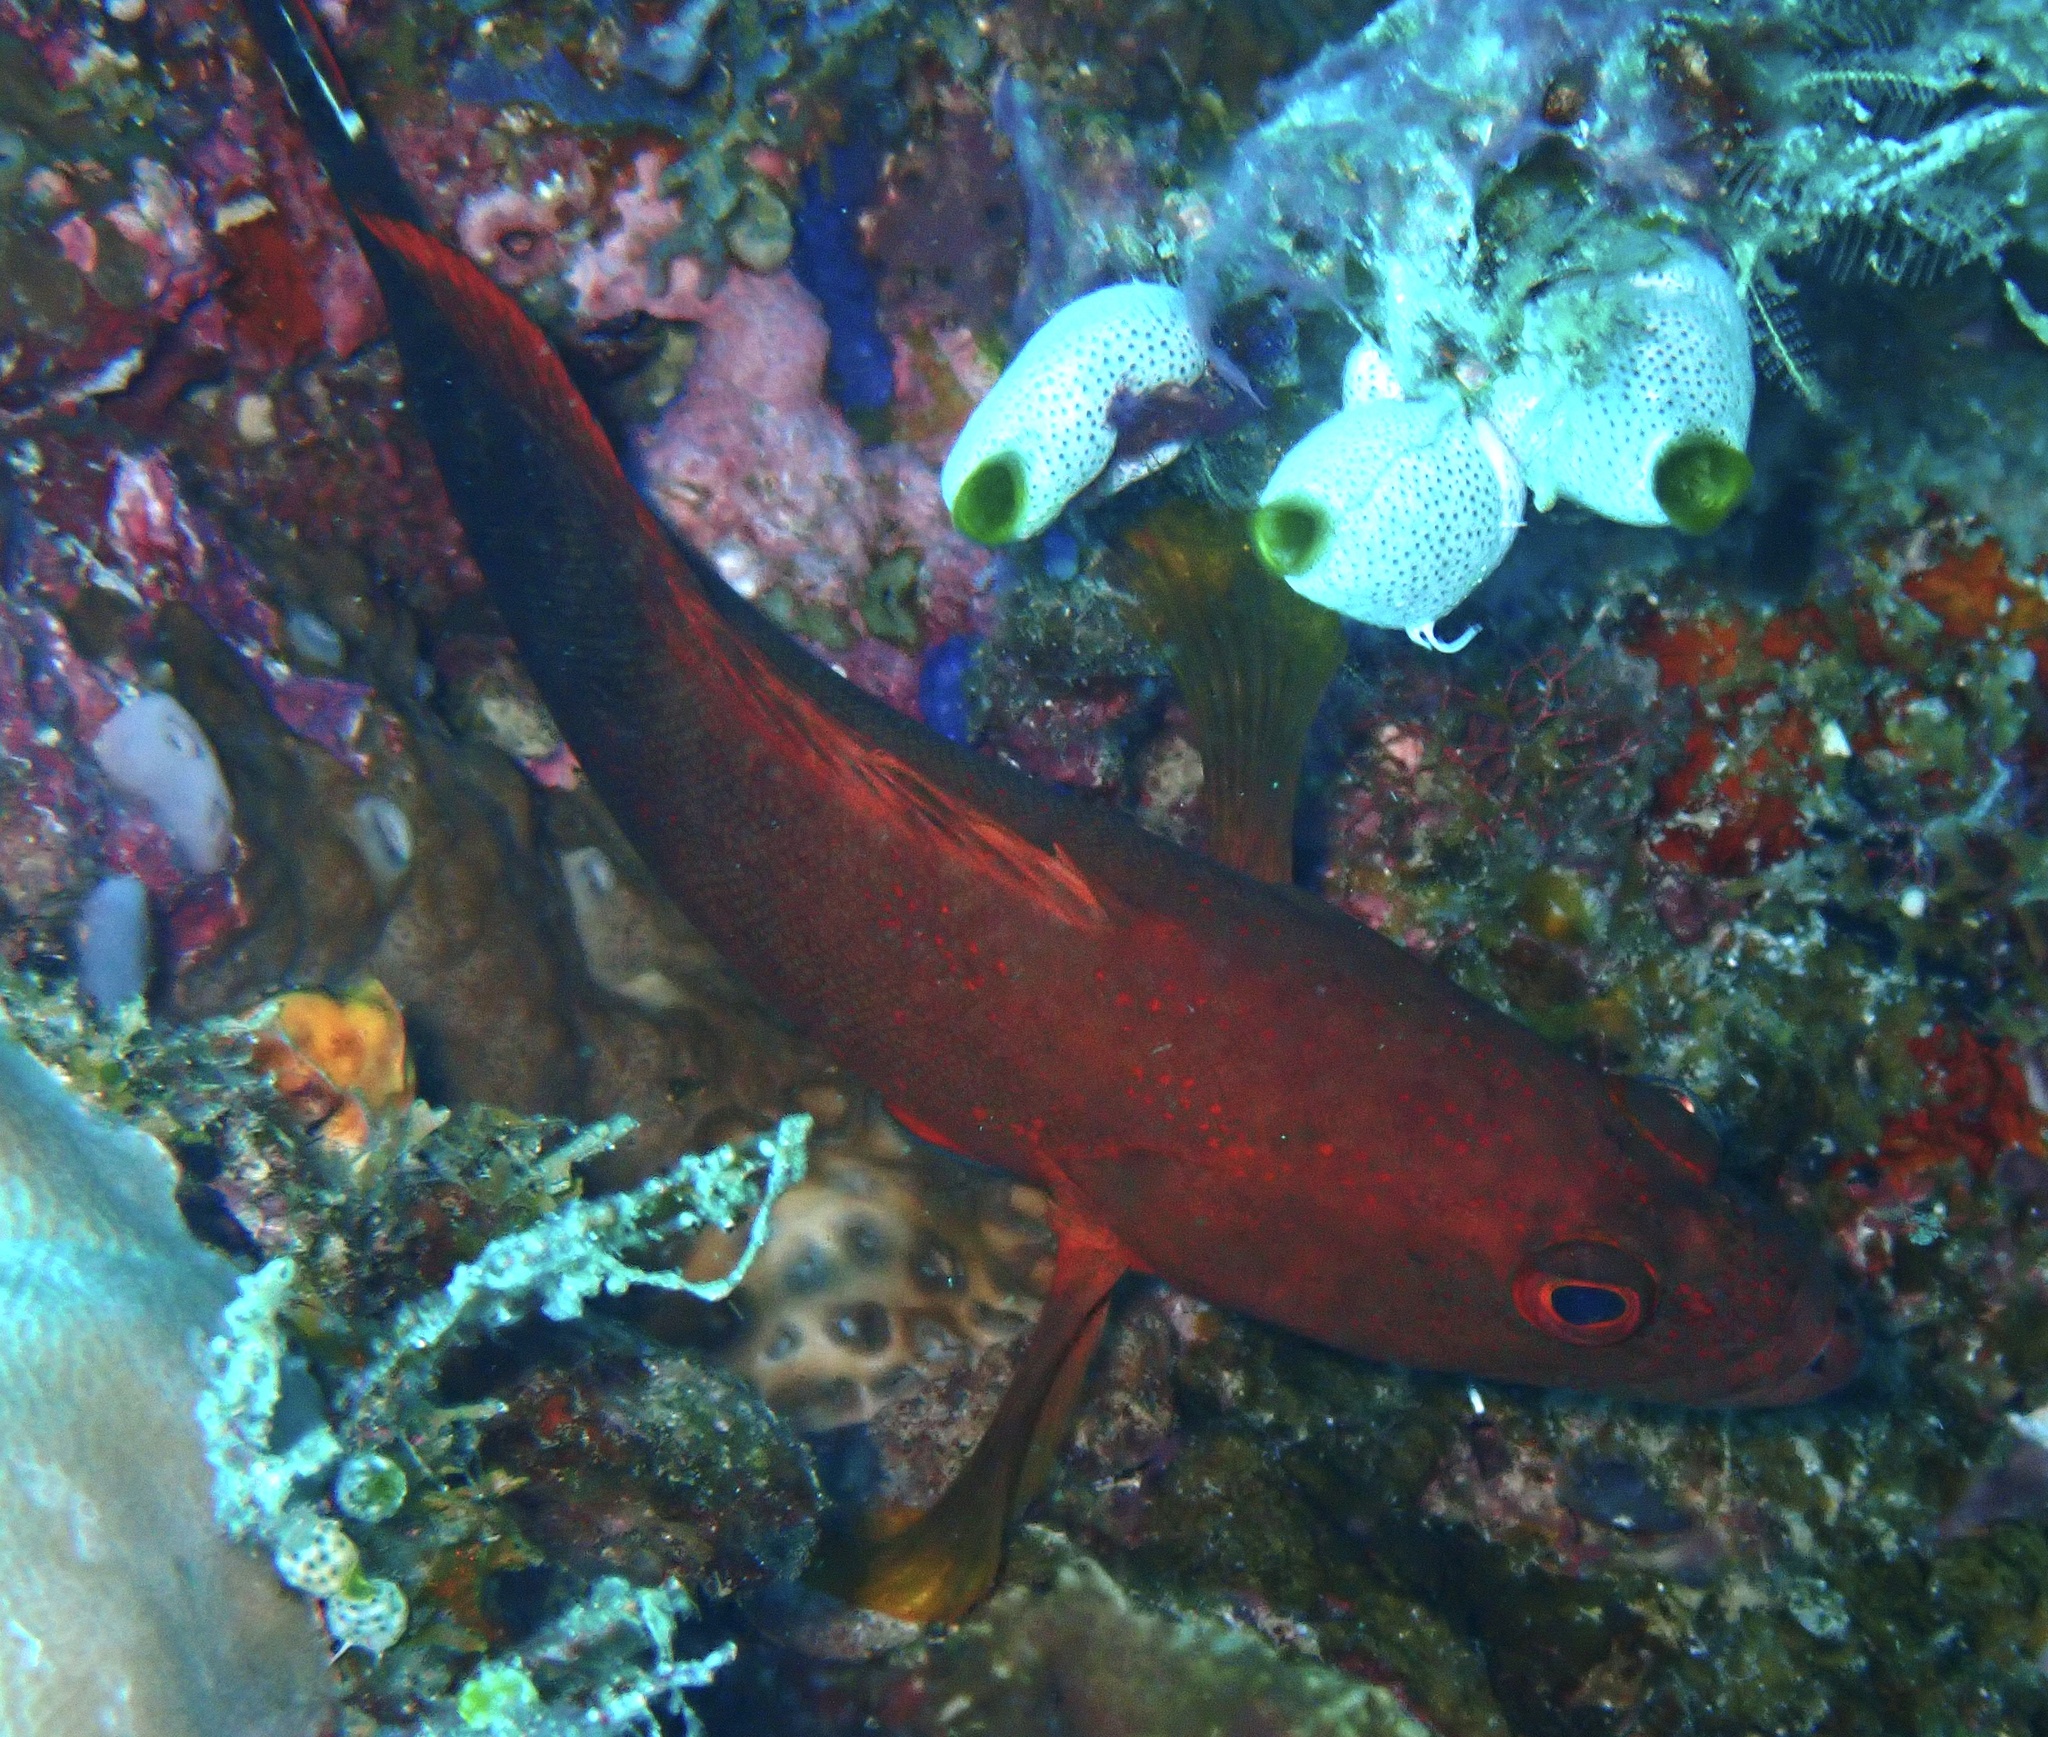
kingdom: Animalia
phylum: Chordata
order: Perciformes
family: Serranidae
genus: Cephalopholis
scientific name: Cephalopholis urodeta
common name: Darkfin hind
